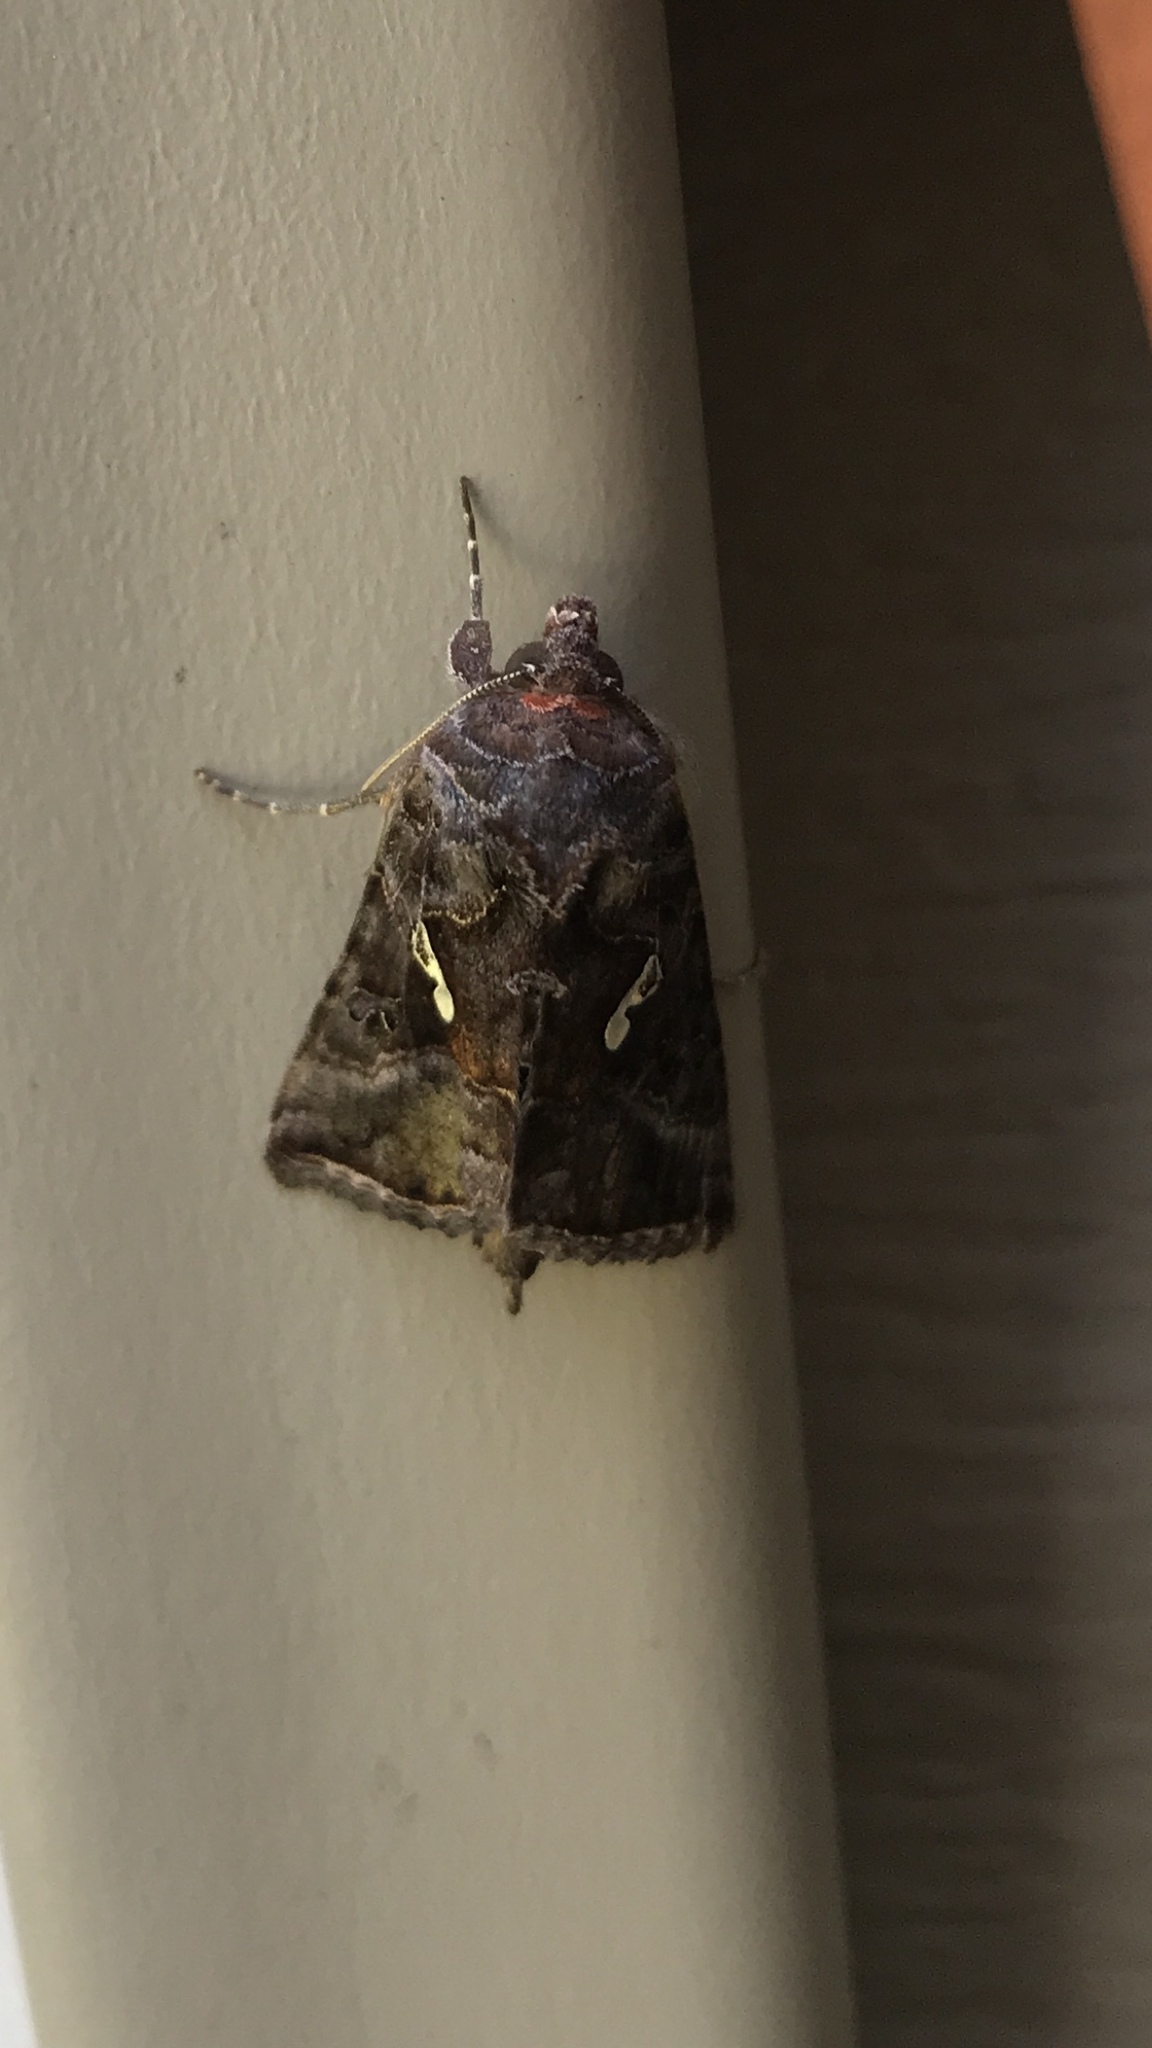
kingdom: Animalia
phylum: Arthropoda
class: Insecta
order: Lepidoptera
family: Noctuidae
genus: Autographa
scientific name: Autographa precationis
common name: Common looper moth
